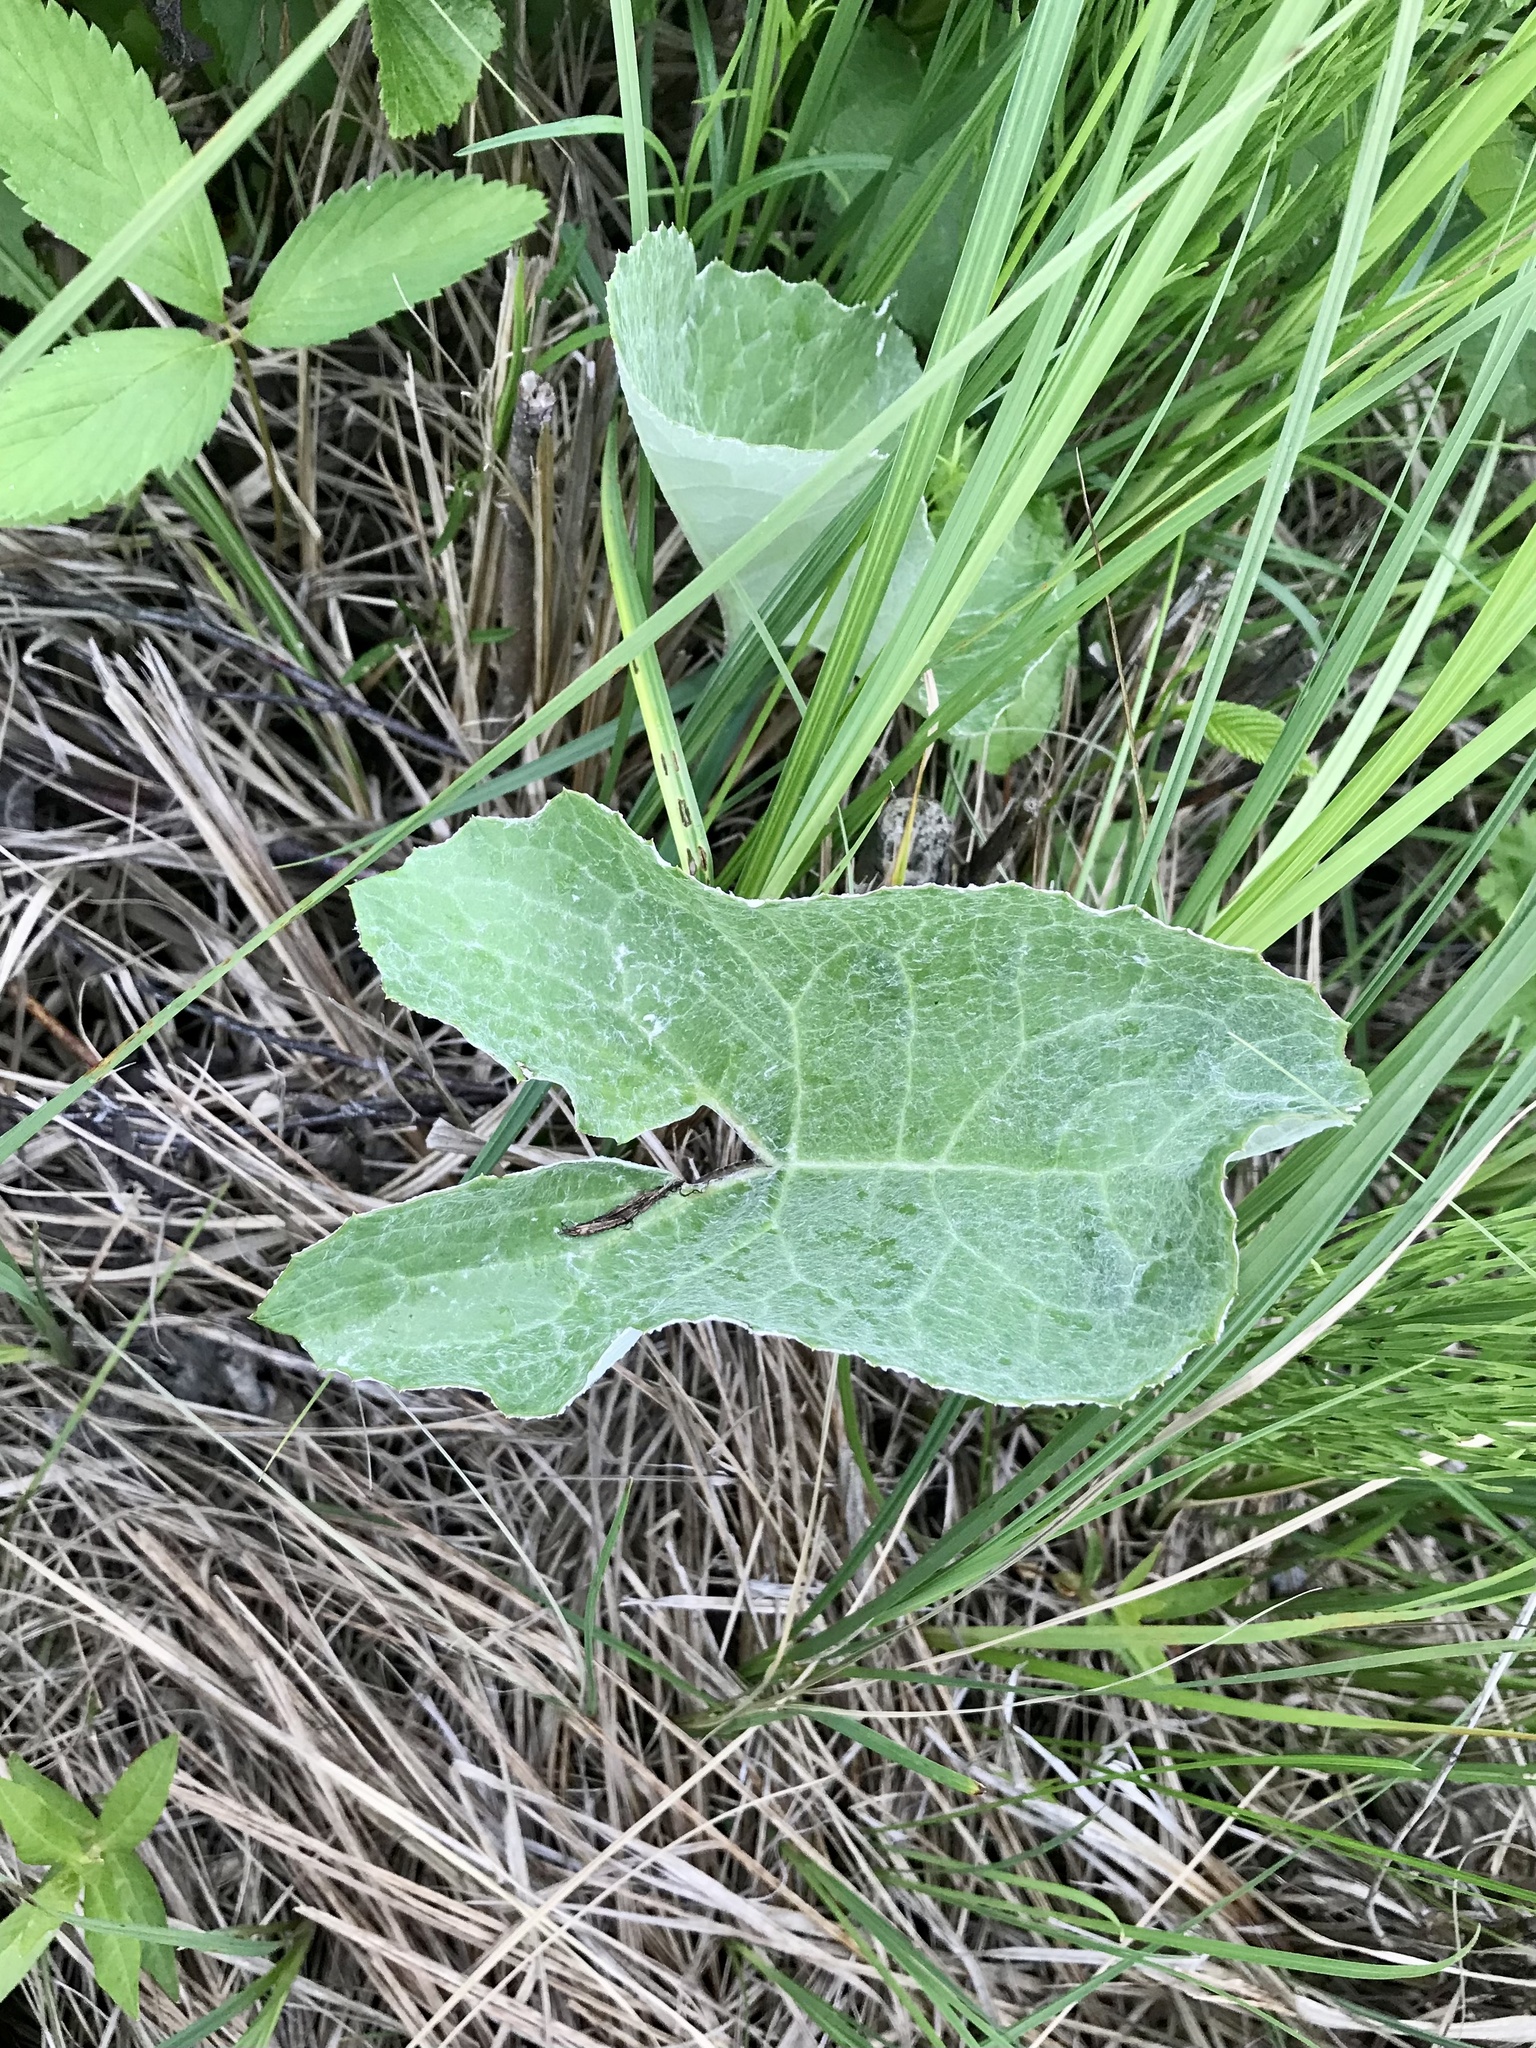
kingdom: Plantae
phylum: Tracheophyta
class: Magnoliopsida
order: Asterales
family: Asteraceae
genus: Petasites
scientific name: Petasites frigidus
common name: Arctic butterbur
